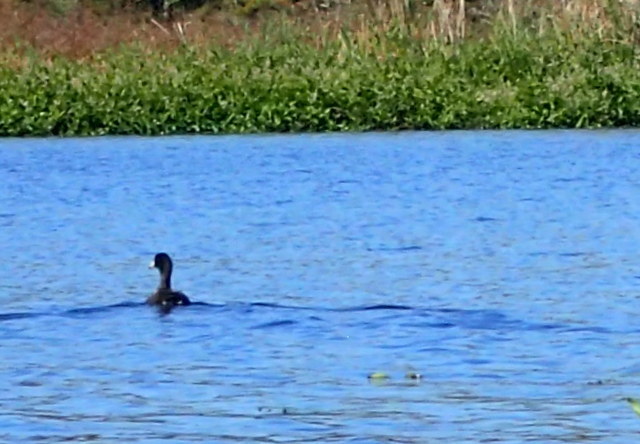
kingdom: Animalia
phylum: Chordata
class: Aves
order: Gruiformes
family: Rallidae
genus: Fulica
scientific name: Fulica americana
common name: American coot
